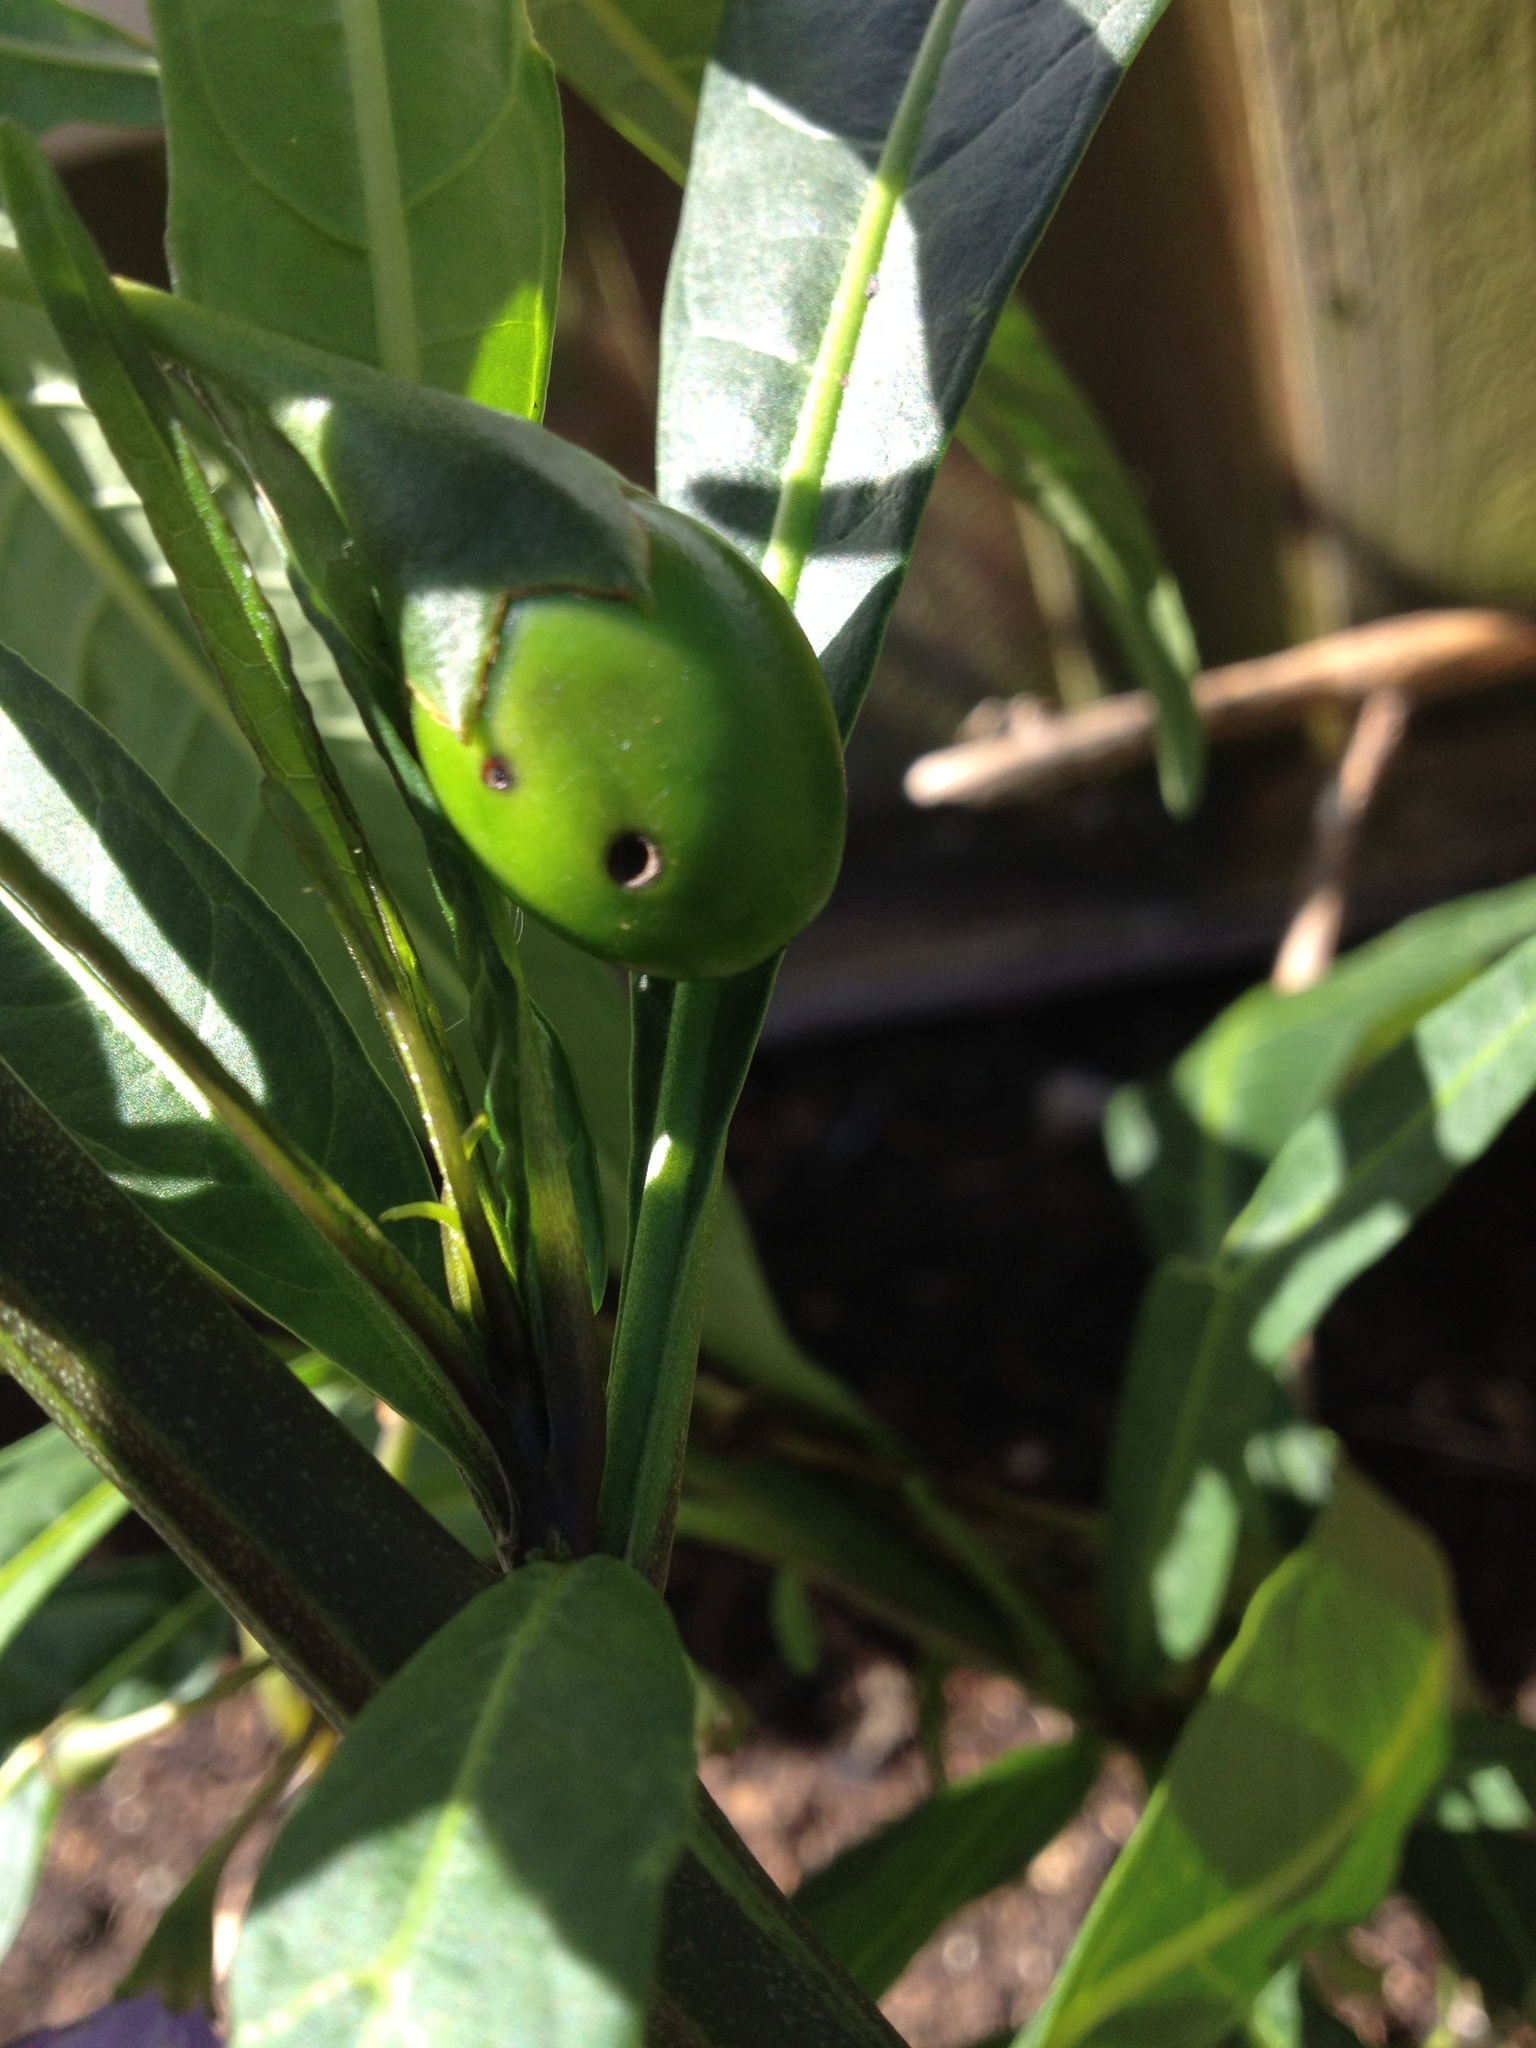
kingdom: Plantae
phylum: Tracheophyta
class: Magnoliopsida
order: Solanales
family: Solanaceae
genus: Solanum
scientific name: Solanum laciniatum
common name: Kangaroo-apple
